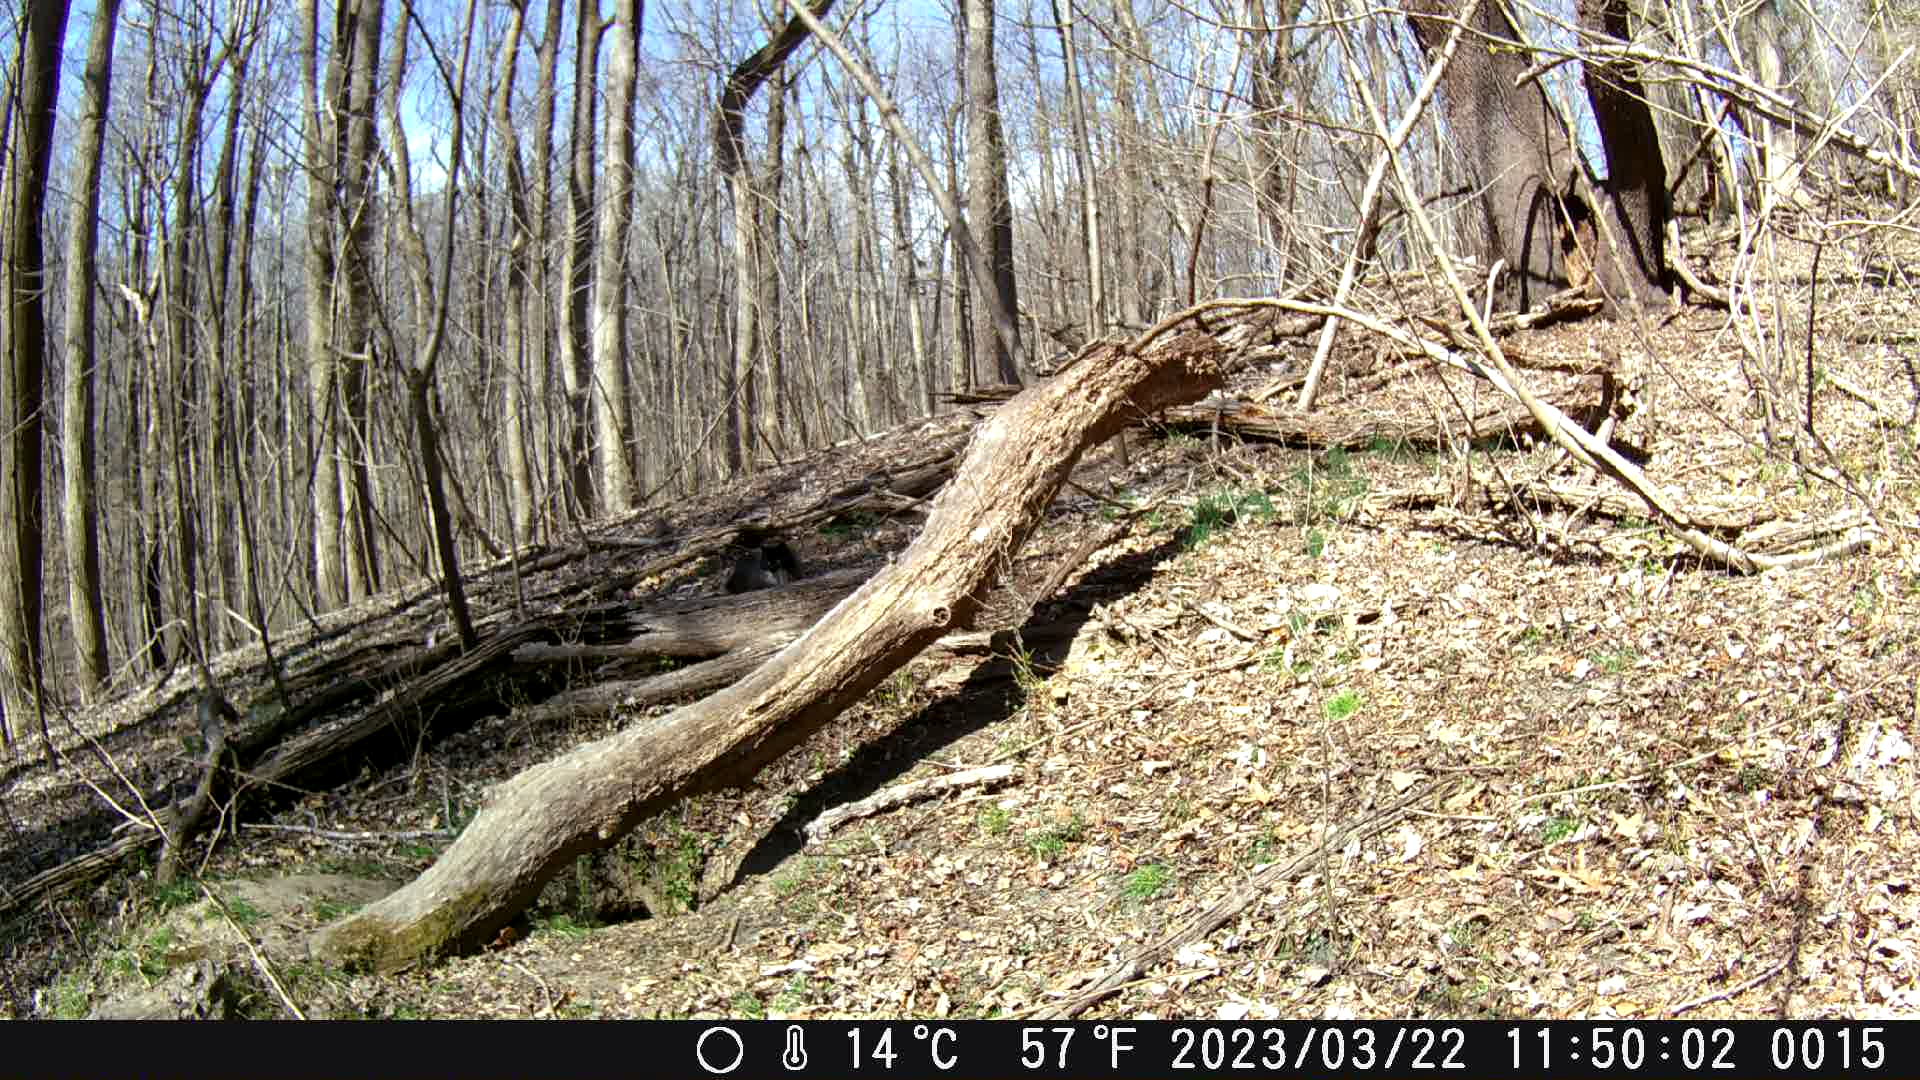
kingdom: Animalia
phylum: Chordata
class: Mammalia
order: Carnivora
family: Felidae
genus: Felis
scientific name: Felis catus
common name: Domestic cat
